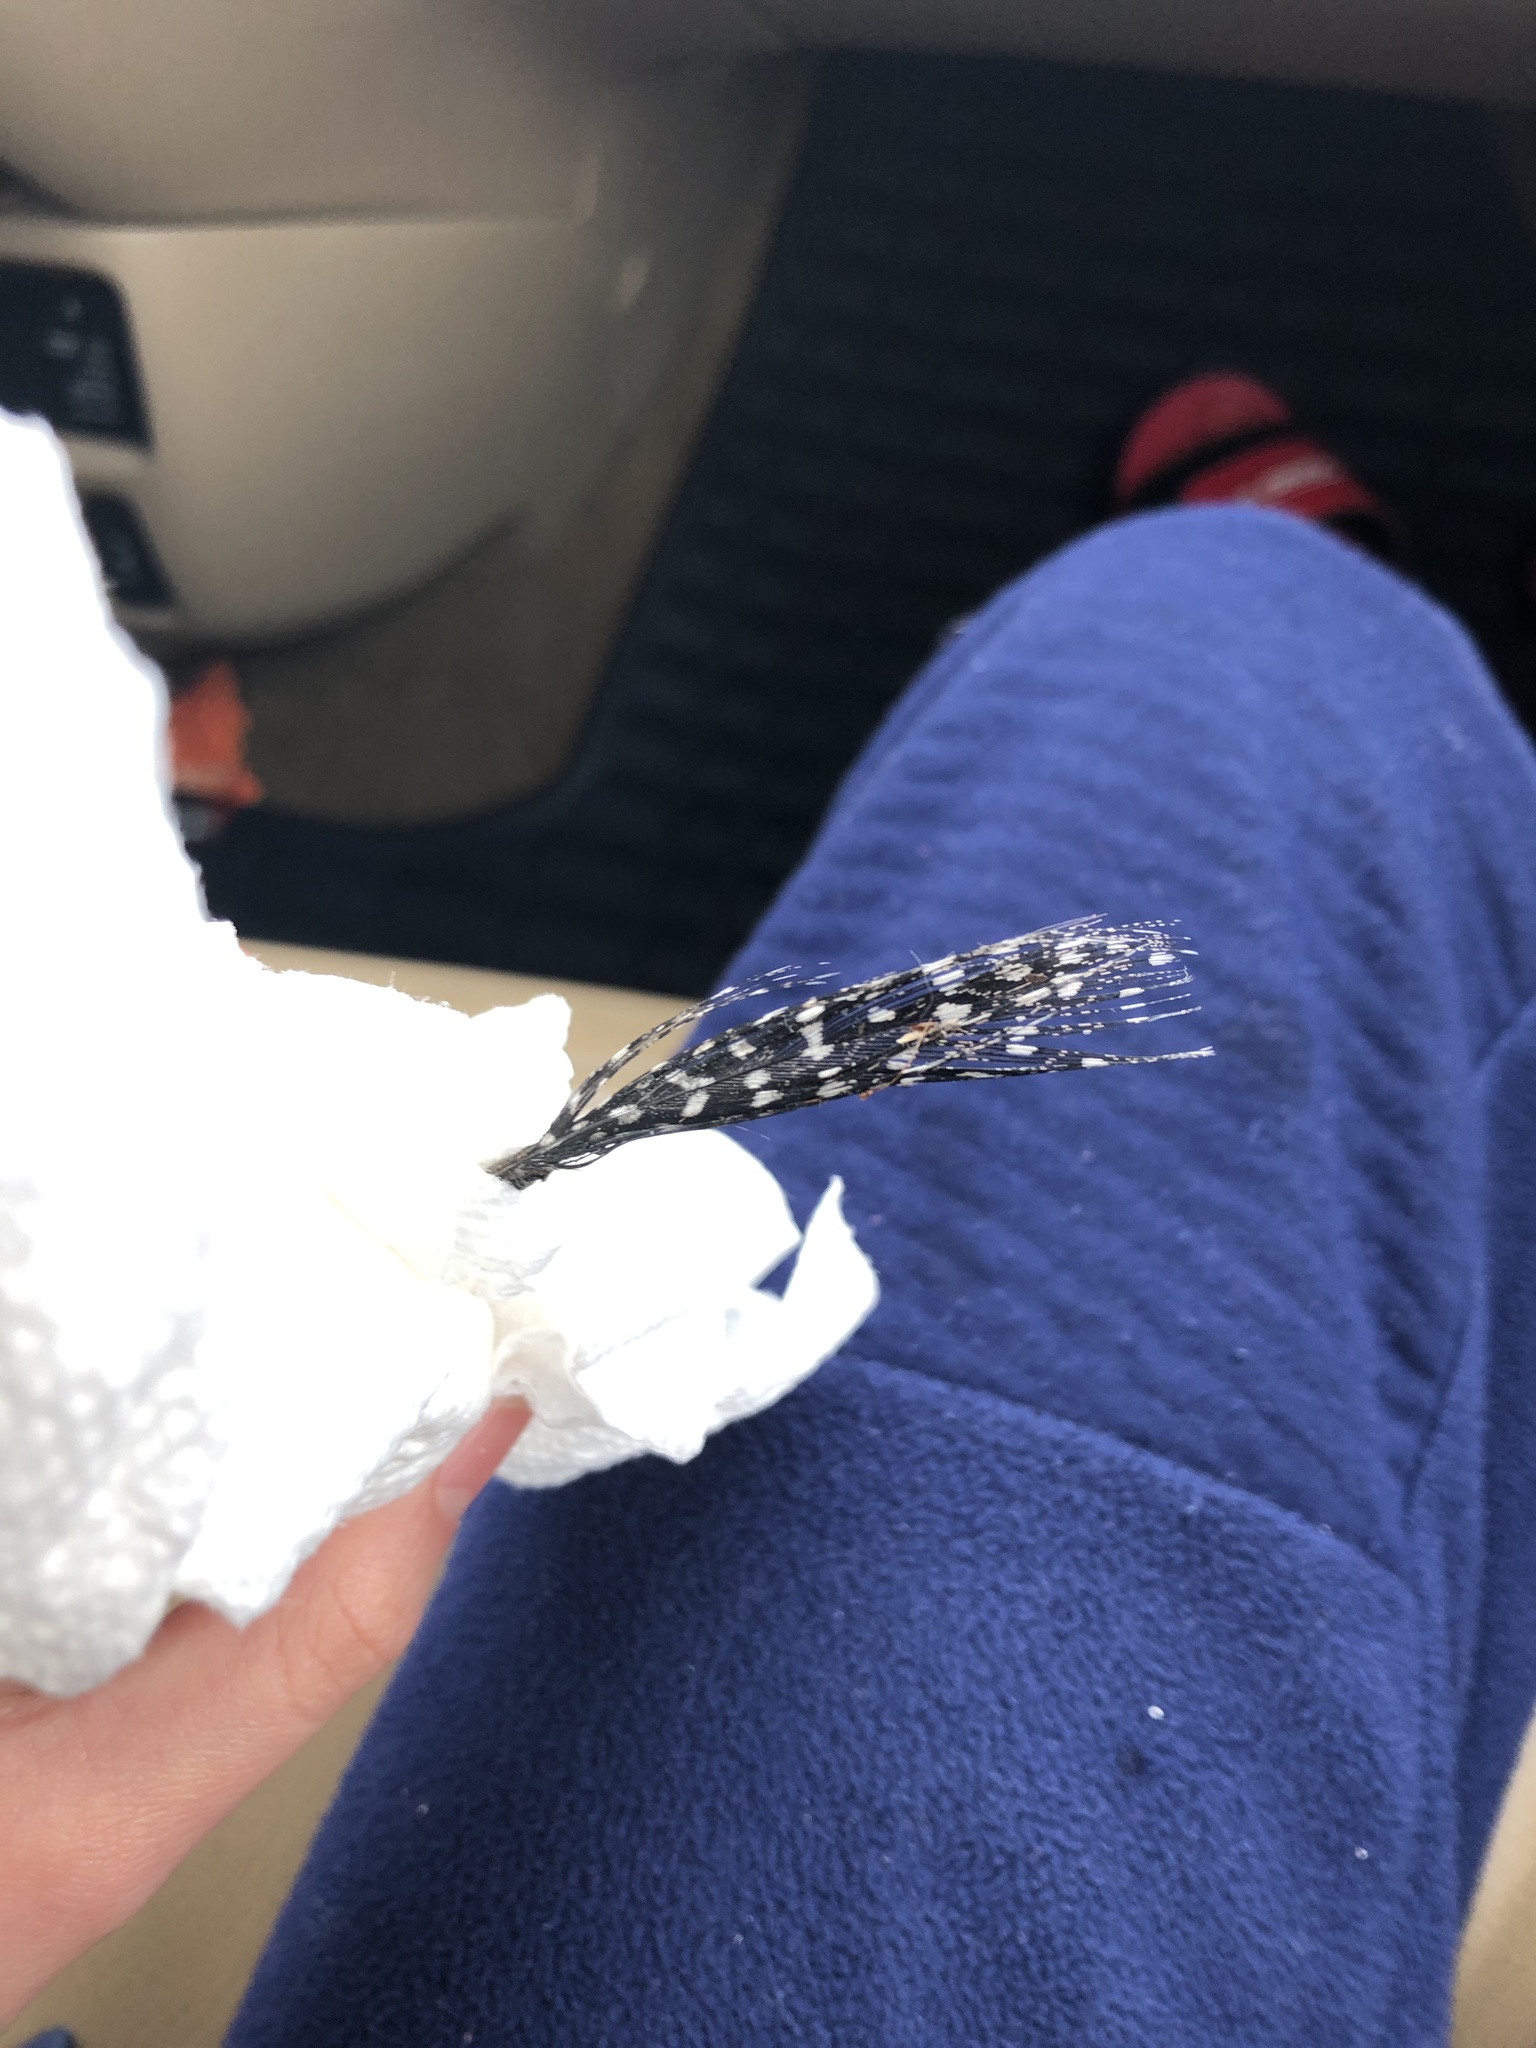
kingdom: Animalia
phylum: Chordata
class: Aves
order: Galliformes
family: Numididae
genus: Numida
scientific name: Numida meleagris
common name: Helmeted guineafowl
